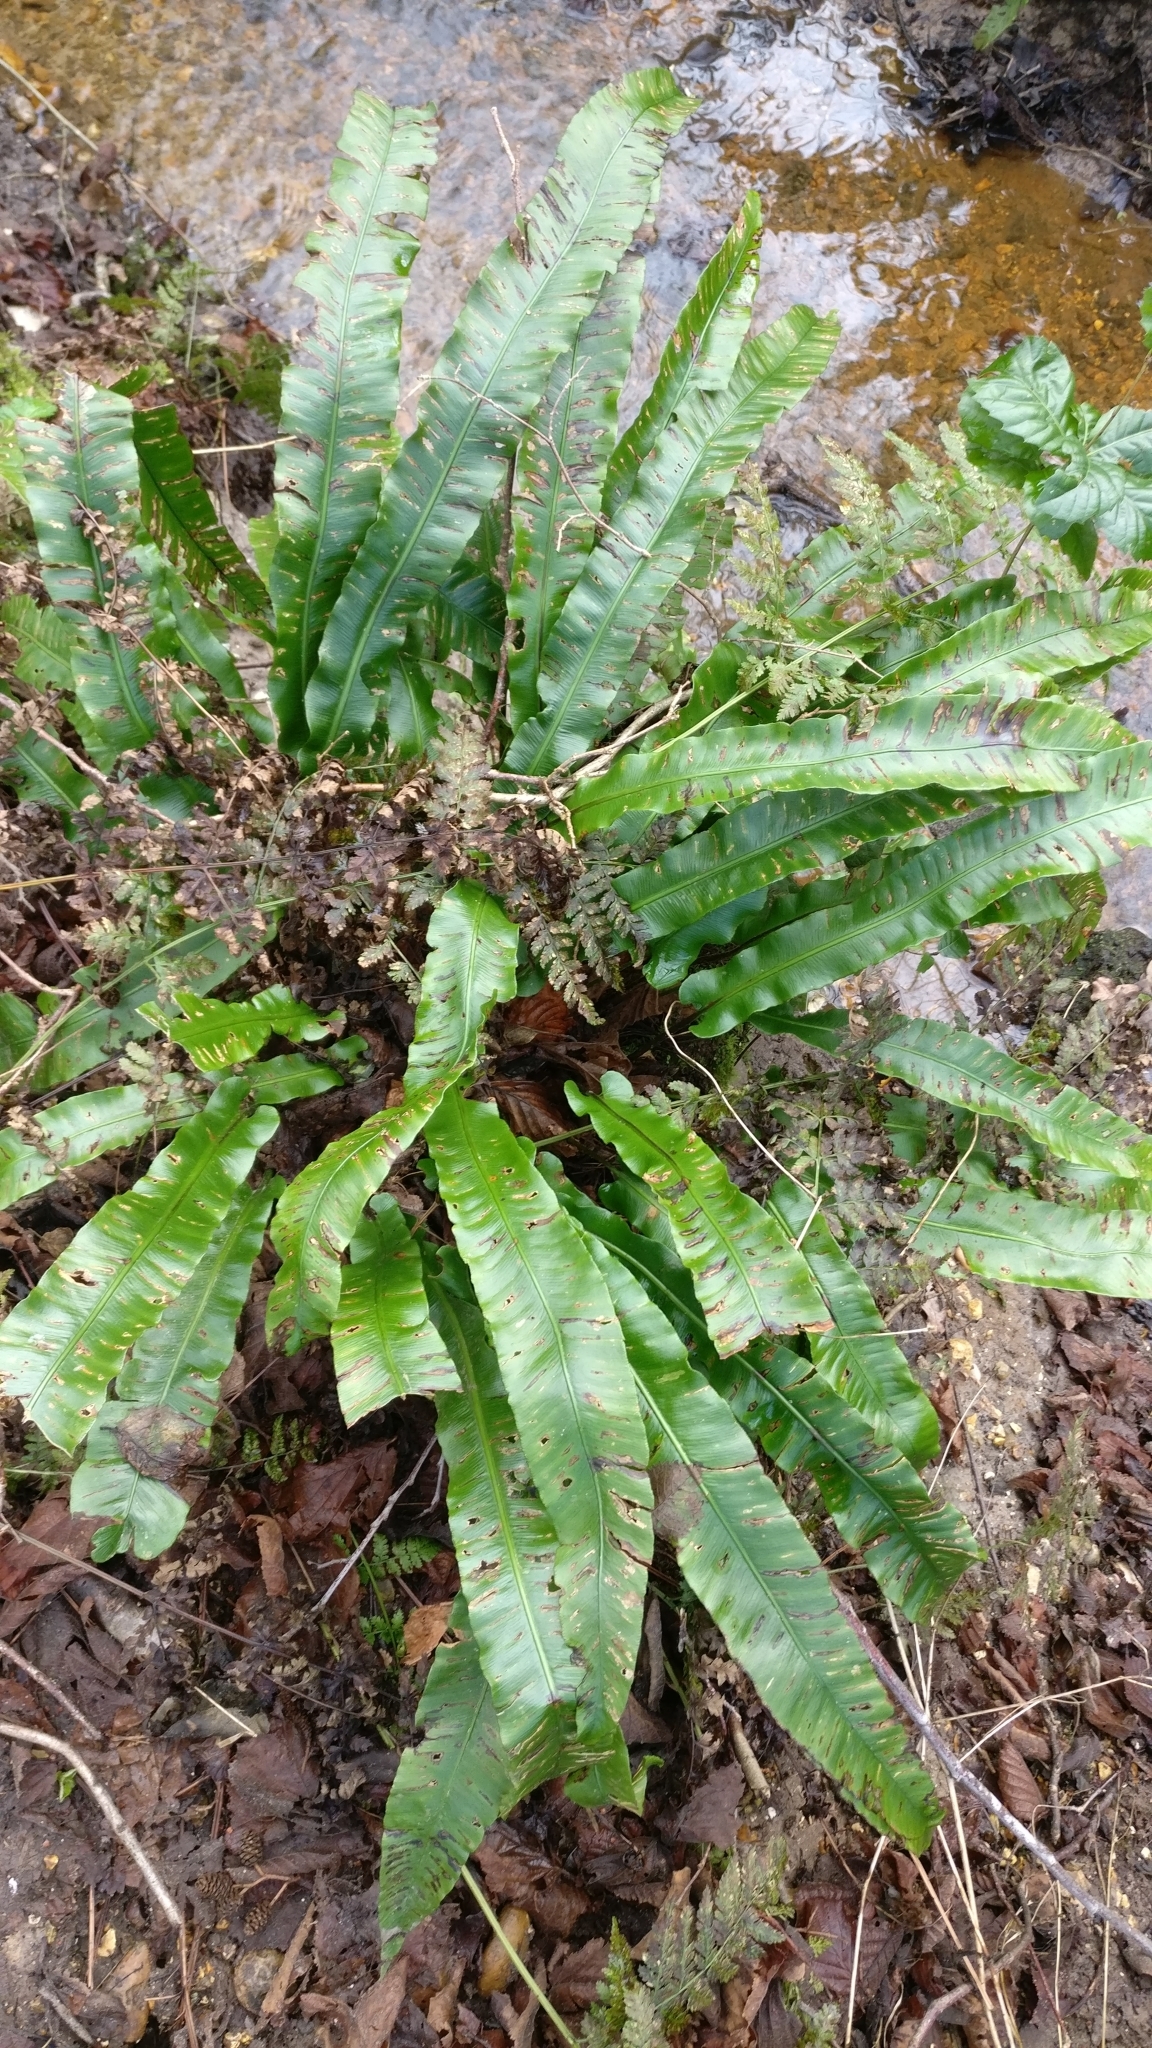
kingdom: Plantae
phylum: Tracheophyta
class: Polypodiopsida
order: Polypodiales
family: Aspleniaceae
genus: Asplenium
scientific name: Asplenium scolopendrium
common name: Hart's-tongue fern
